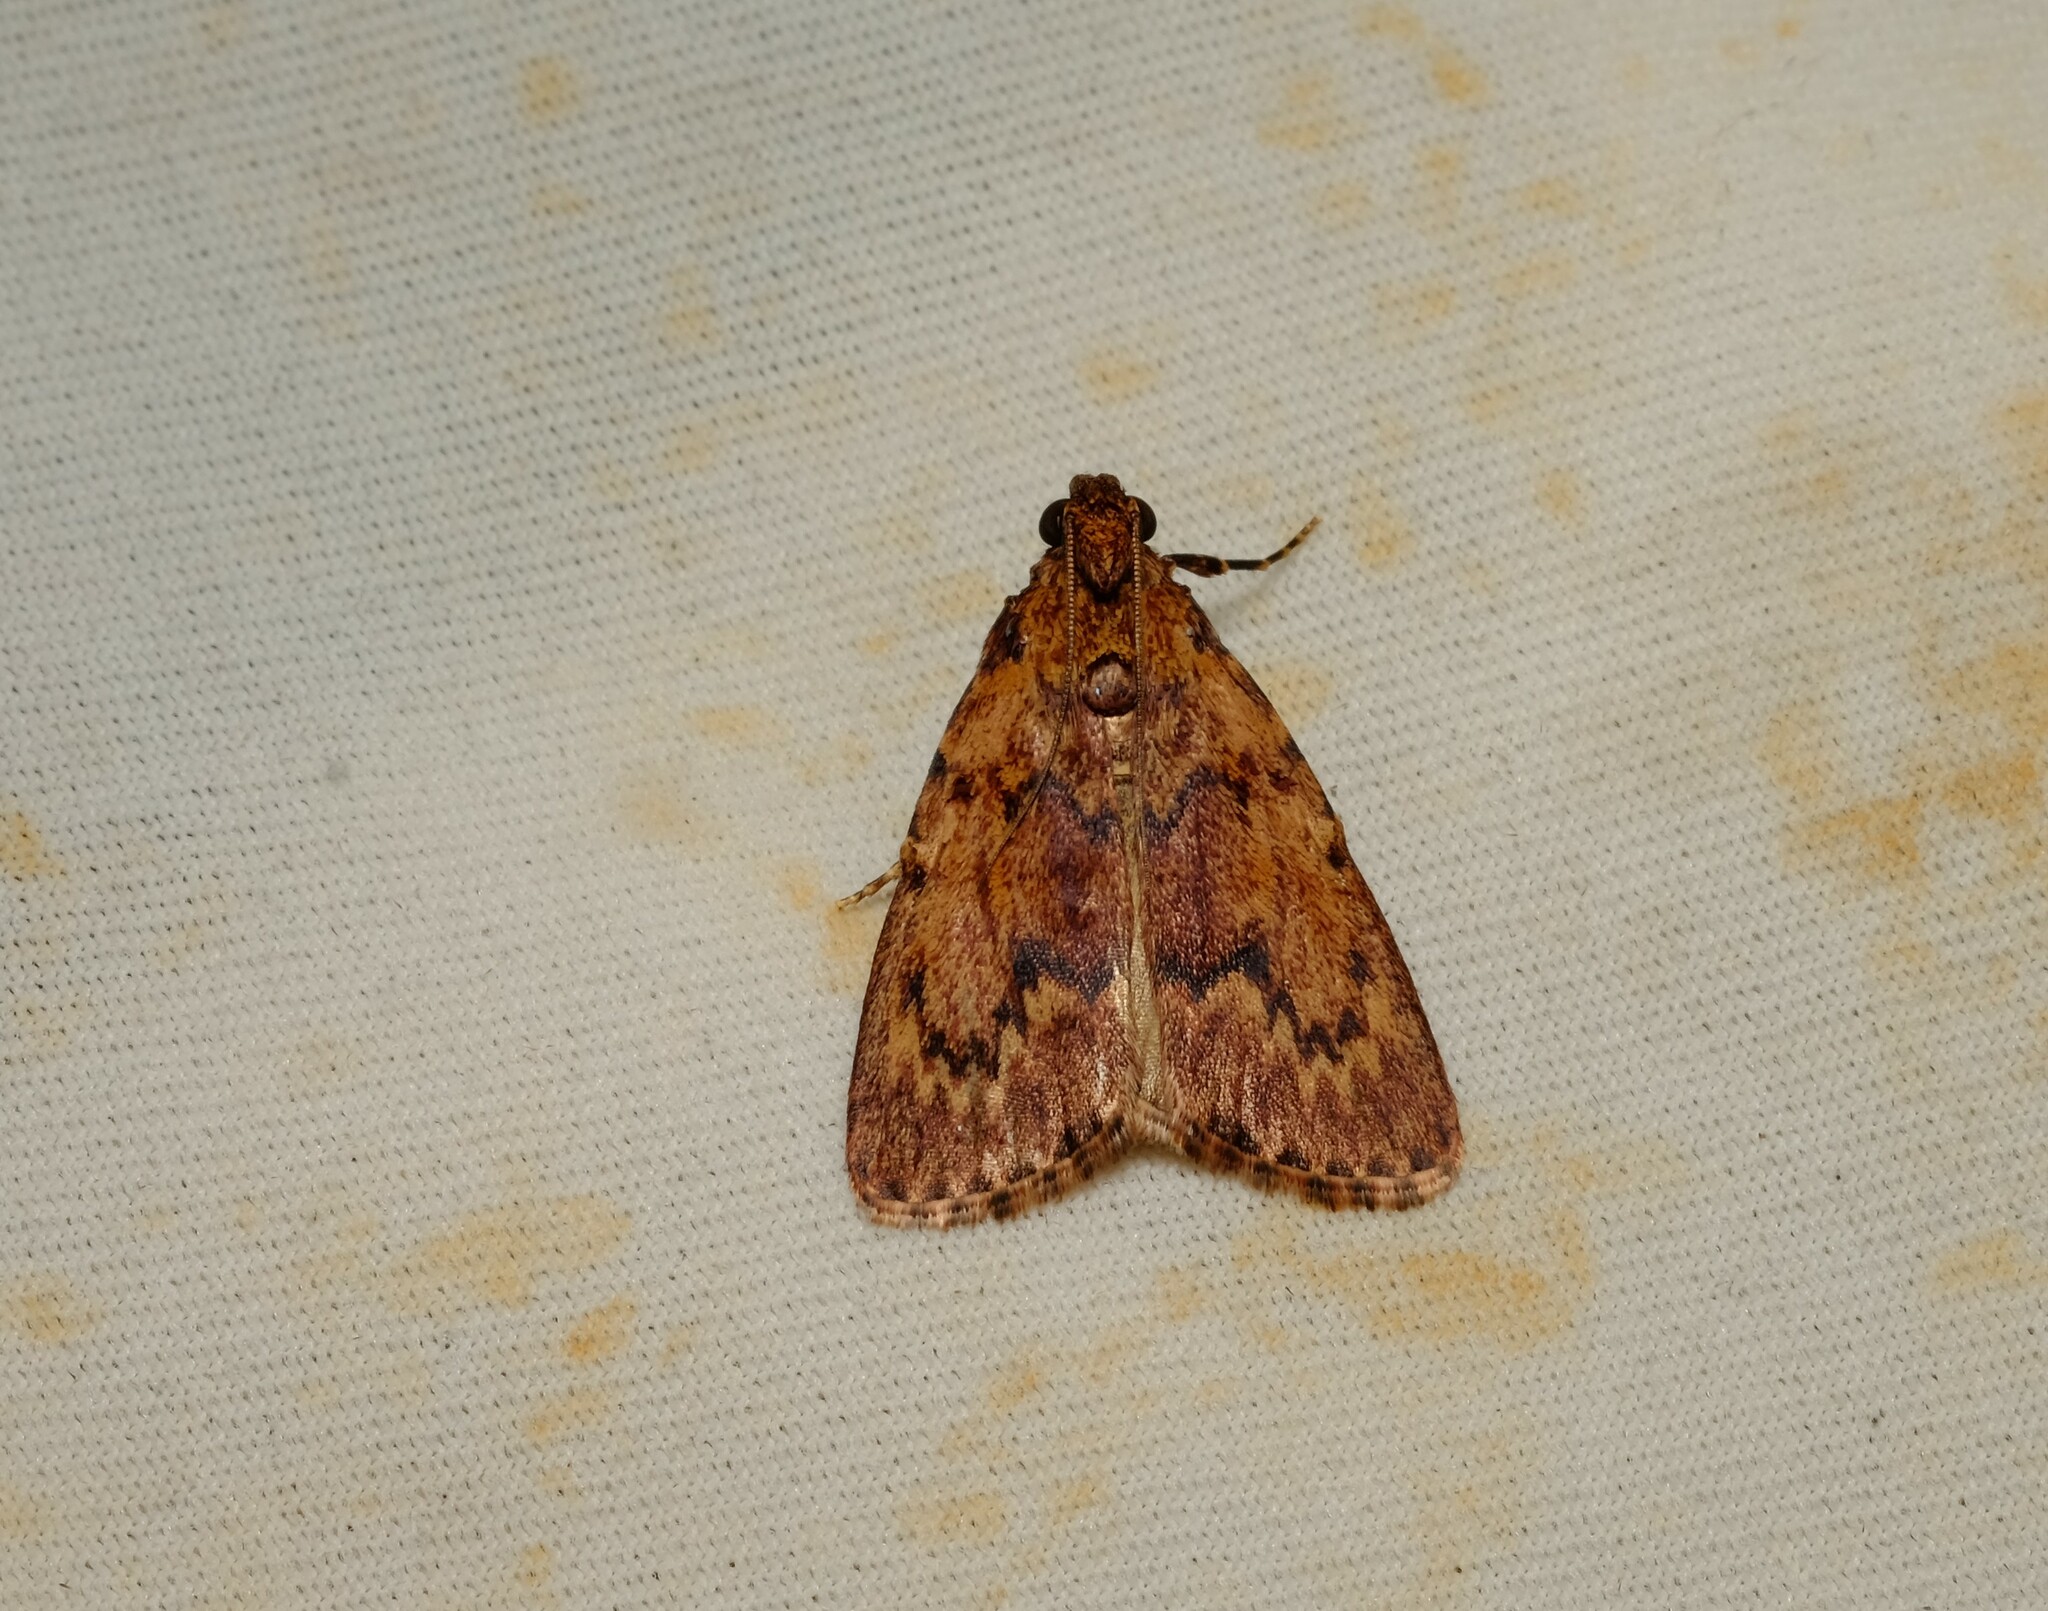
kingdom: Animalia
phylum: Arthropoda
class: Insecta
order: Lepidoptera
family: Pyralidae
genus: Mimaglossa
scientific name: Mimaglossa nauplialis
